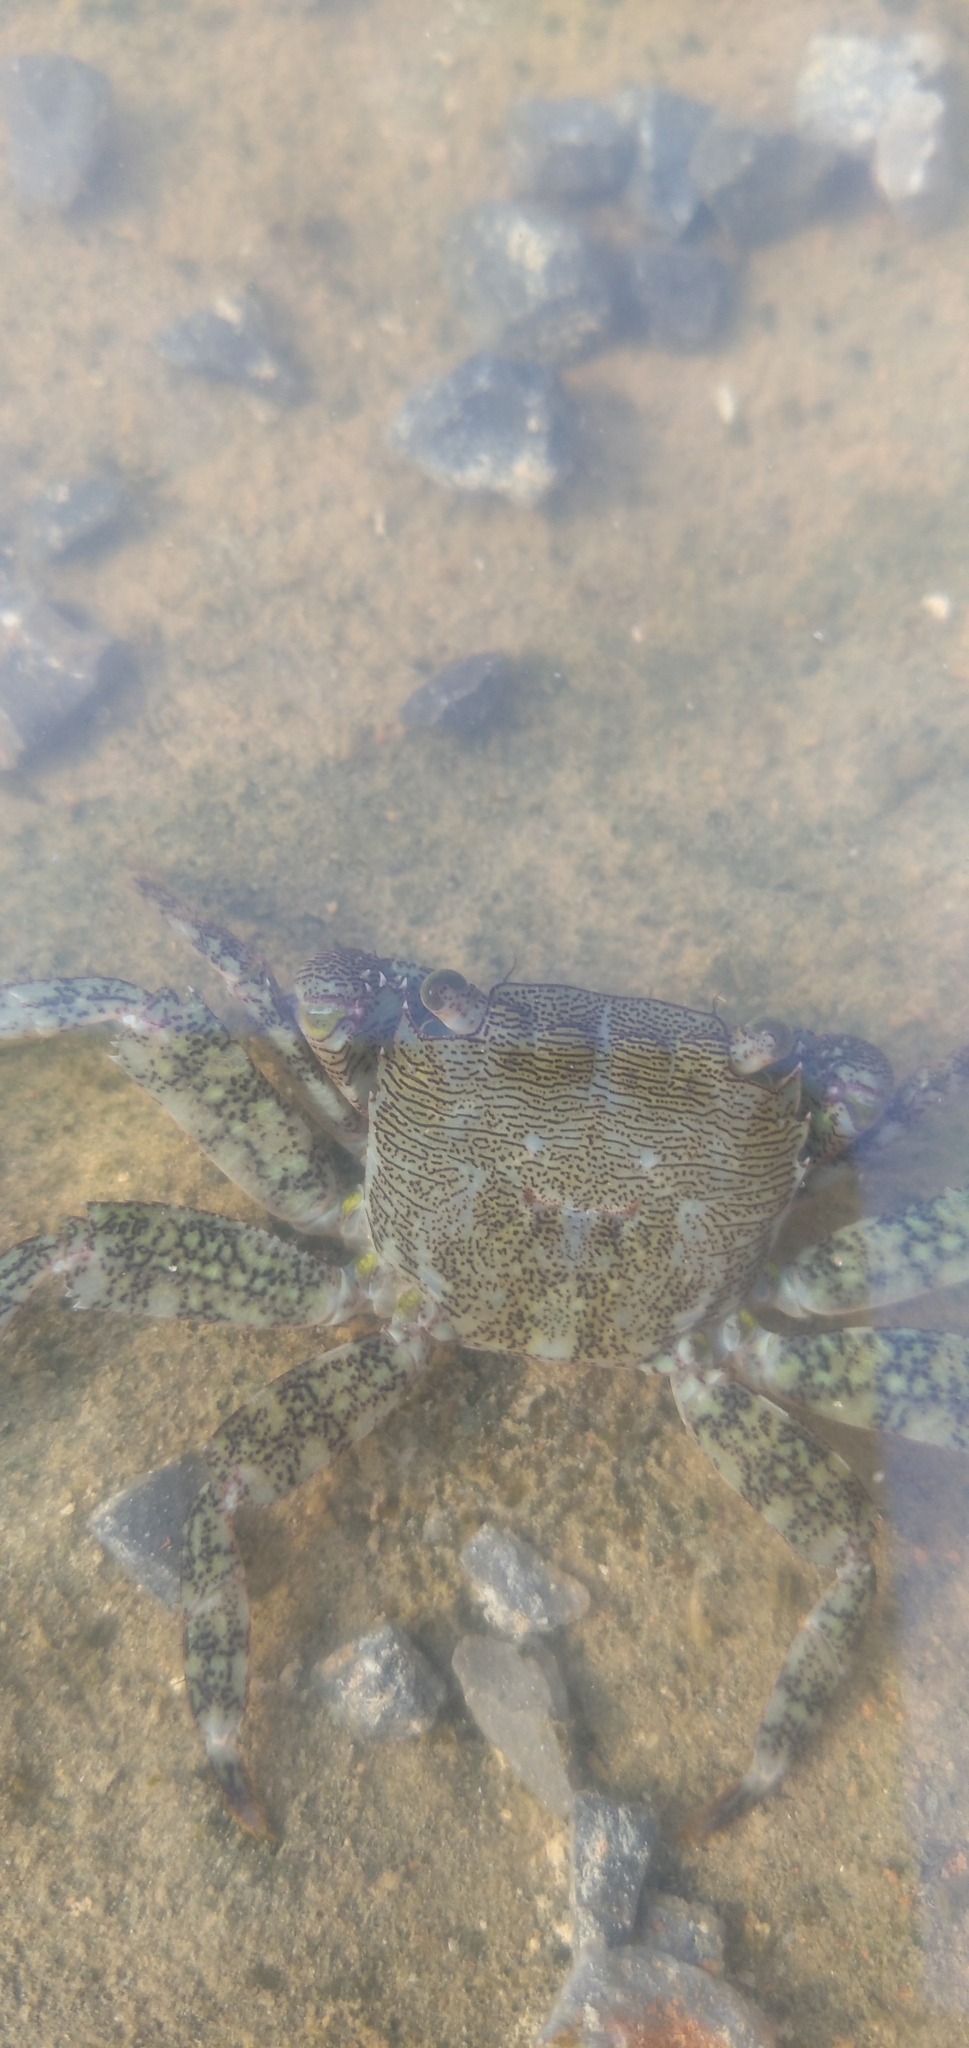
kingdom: Animalia
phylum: Arthropoda
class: Malacostraca
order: Decapoda
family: Grapsidae
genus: Pachygrapsus
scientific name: Pachygrapsus marmoratus
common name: Marbled rock crab
